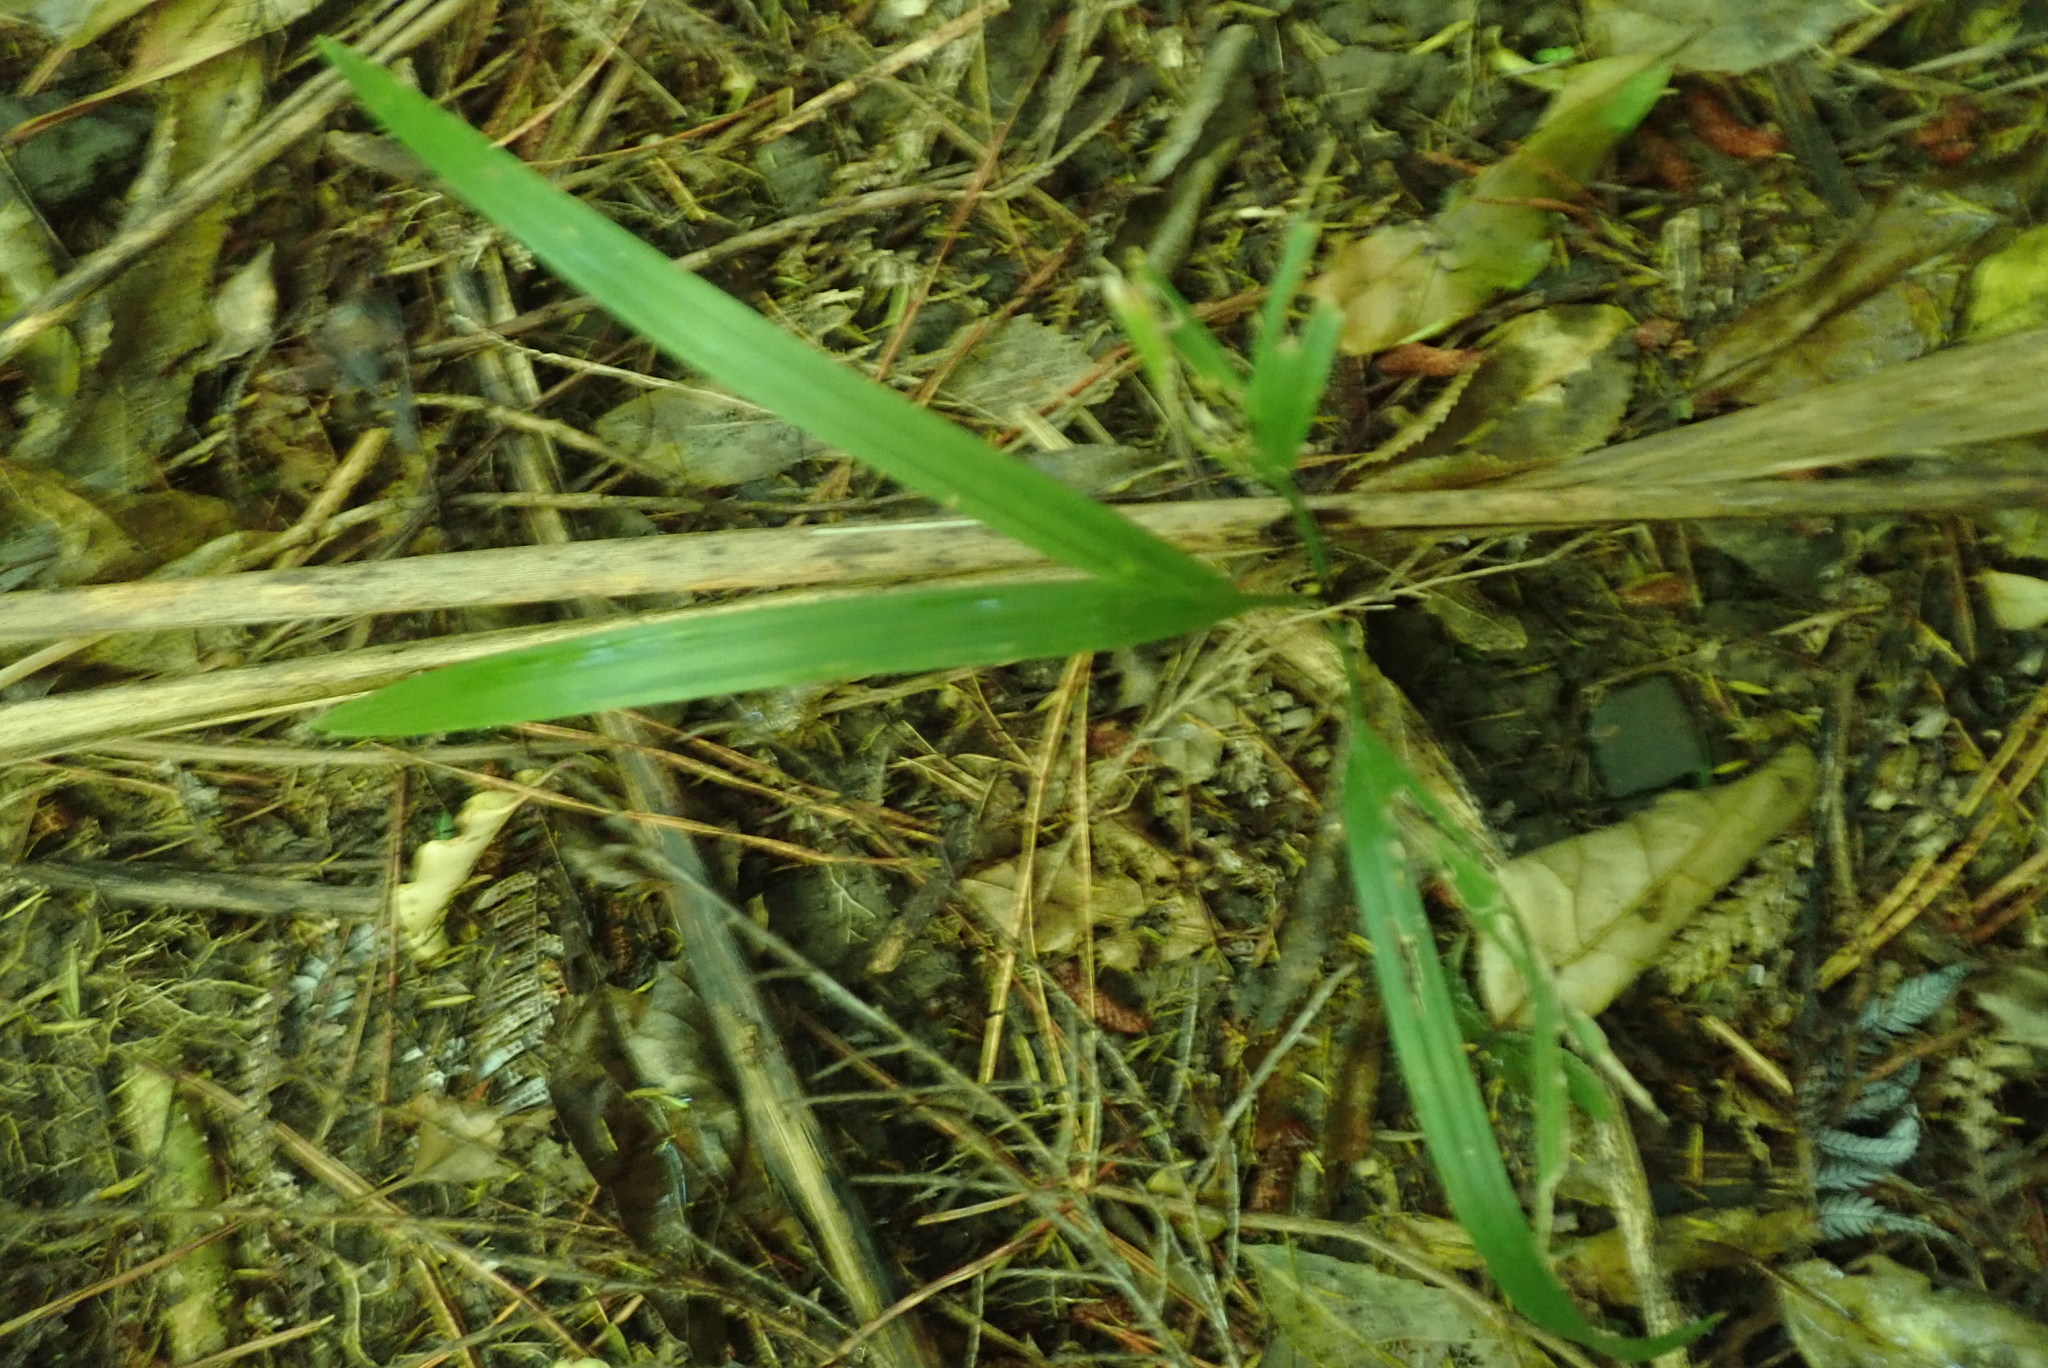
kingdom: Plantae
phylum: Tracheophyta
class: Liliopsida
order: Arecales
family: Arecaceae
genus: Rhopalostylis
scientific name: Rhopalostylis sapida
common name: Feather-duster palm
